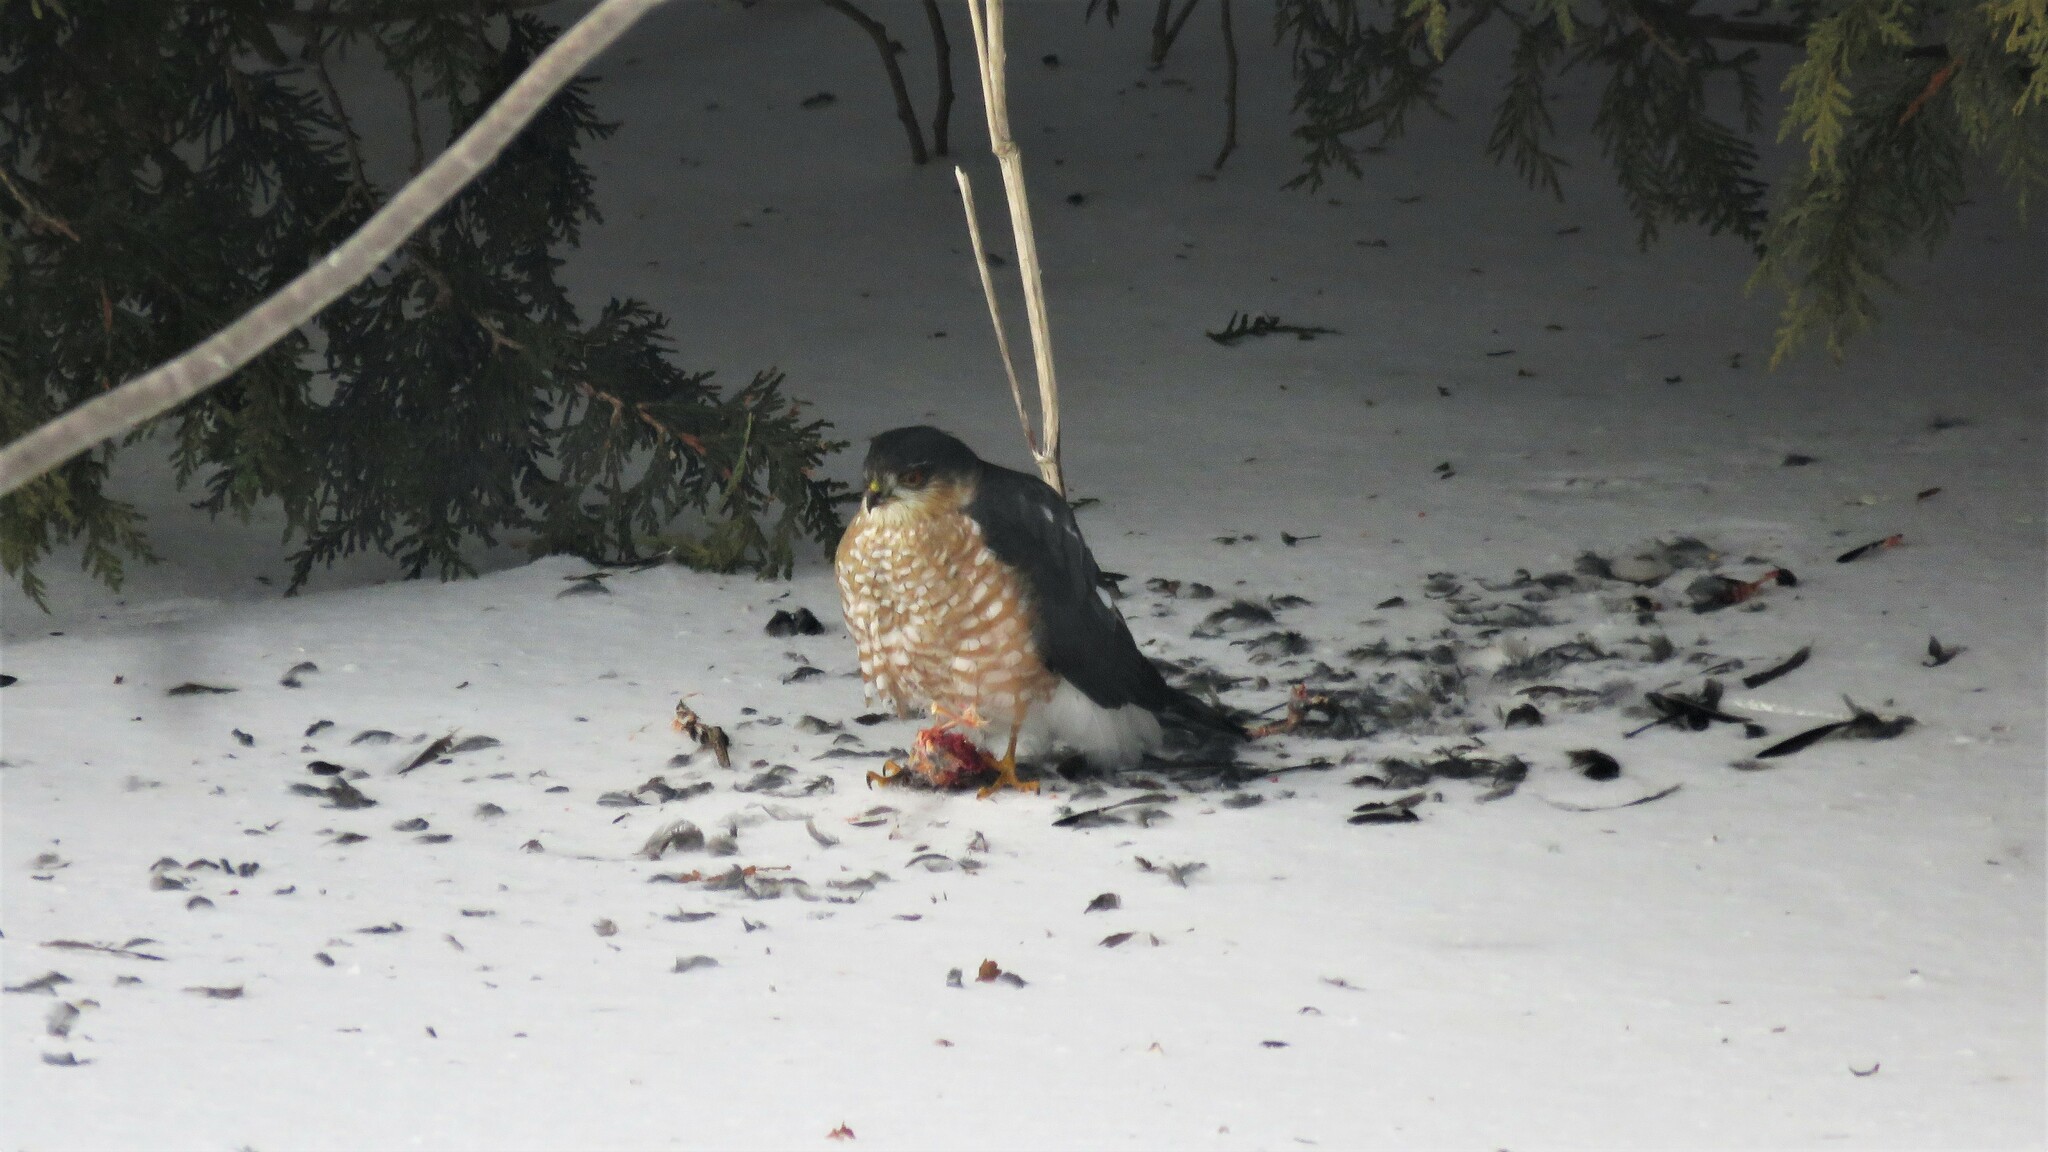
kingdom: Animalia
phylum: Chordata
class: Aves
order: Accipitriformes
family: Accipitridae
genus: Accipiter
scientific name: Accipiter striatus
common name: Sharp-shinned hawk
